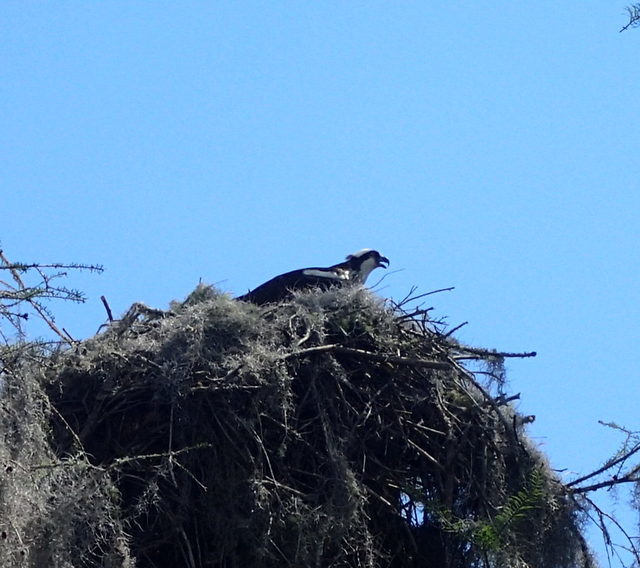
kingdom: Animalia
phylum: Chordata
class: Aves
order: Accipitriformes
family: Pandionidae
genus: Pandion
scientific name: Pandion haliaetus
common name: Osprey
